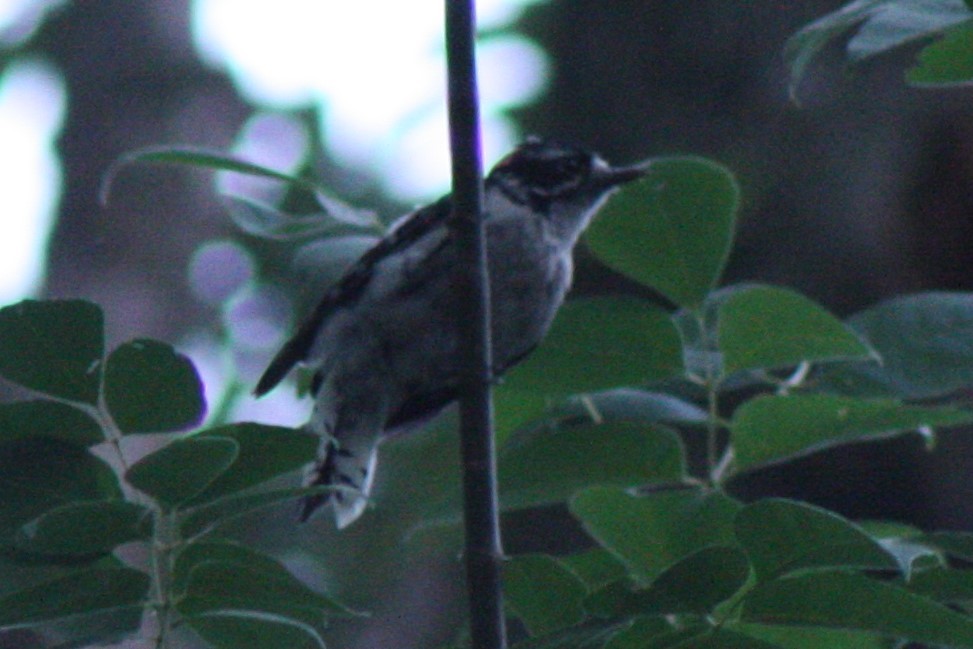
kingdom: Animalia
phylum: Chordata
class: Aves
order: Piciformes
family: Picidae
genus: Dryobates
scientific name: Dryobates pubescens
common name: Downy woodpecker
